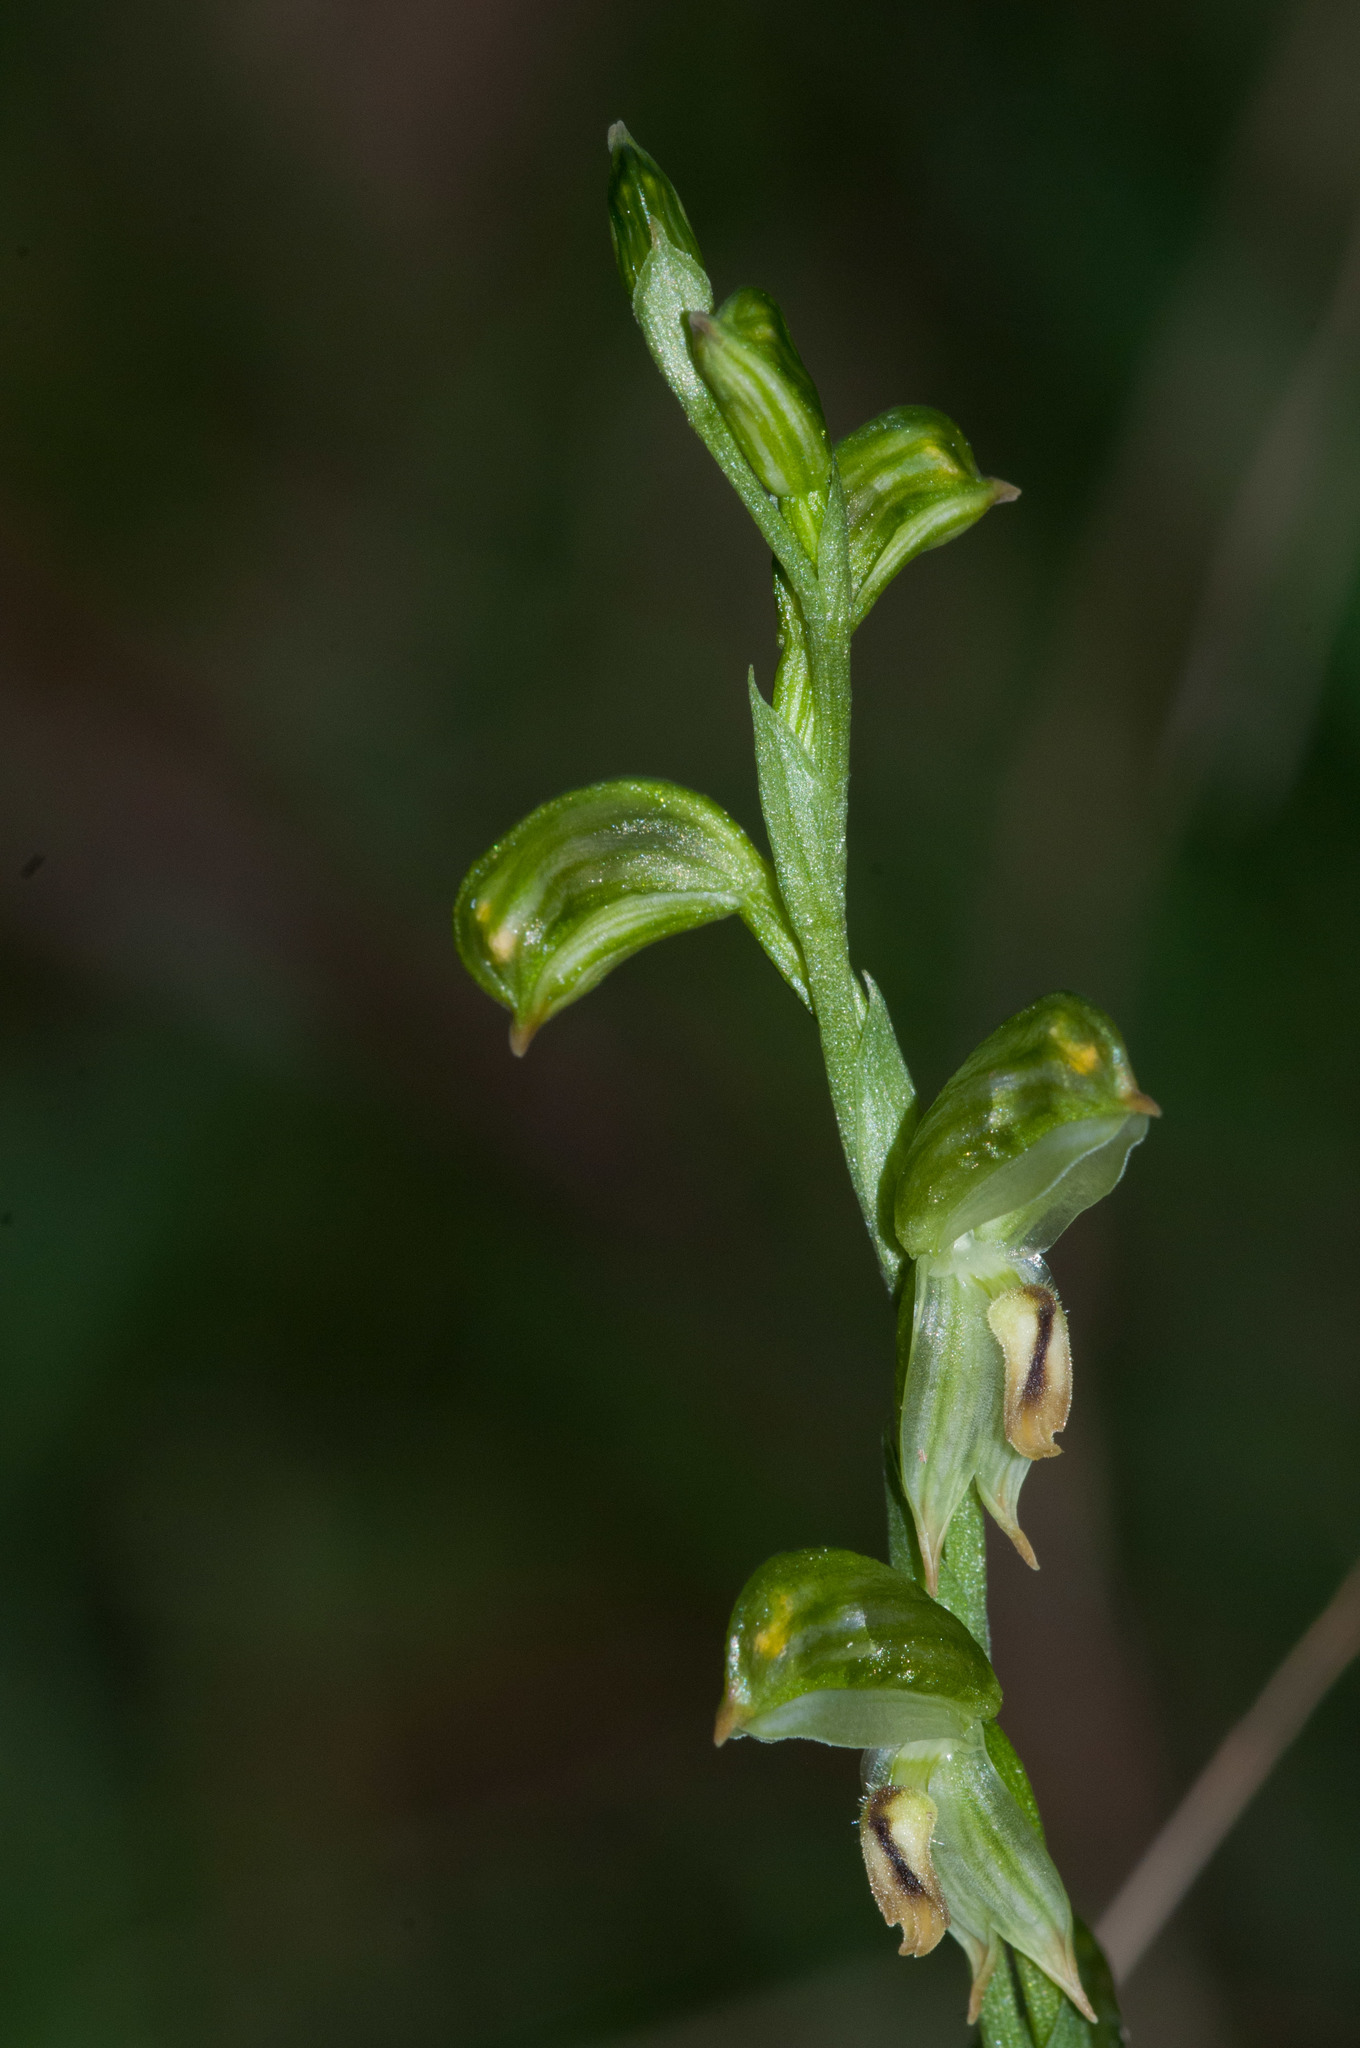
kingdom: Plantae
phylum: Tracheophyta
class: Liliopsida
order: Asparagales
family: Orchidaceae
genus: Pterostylis
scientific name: Pterostylis melagramma
